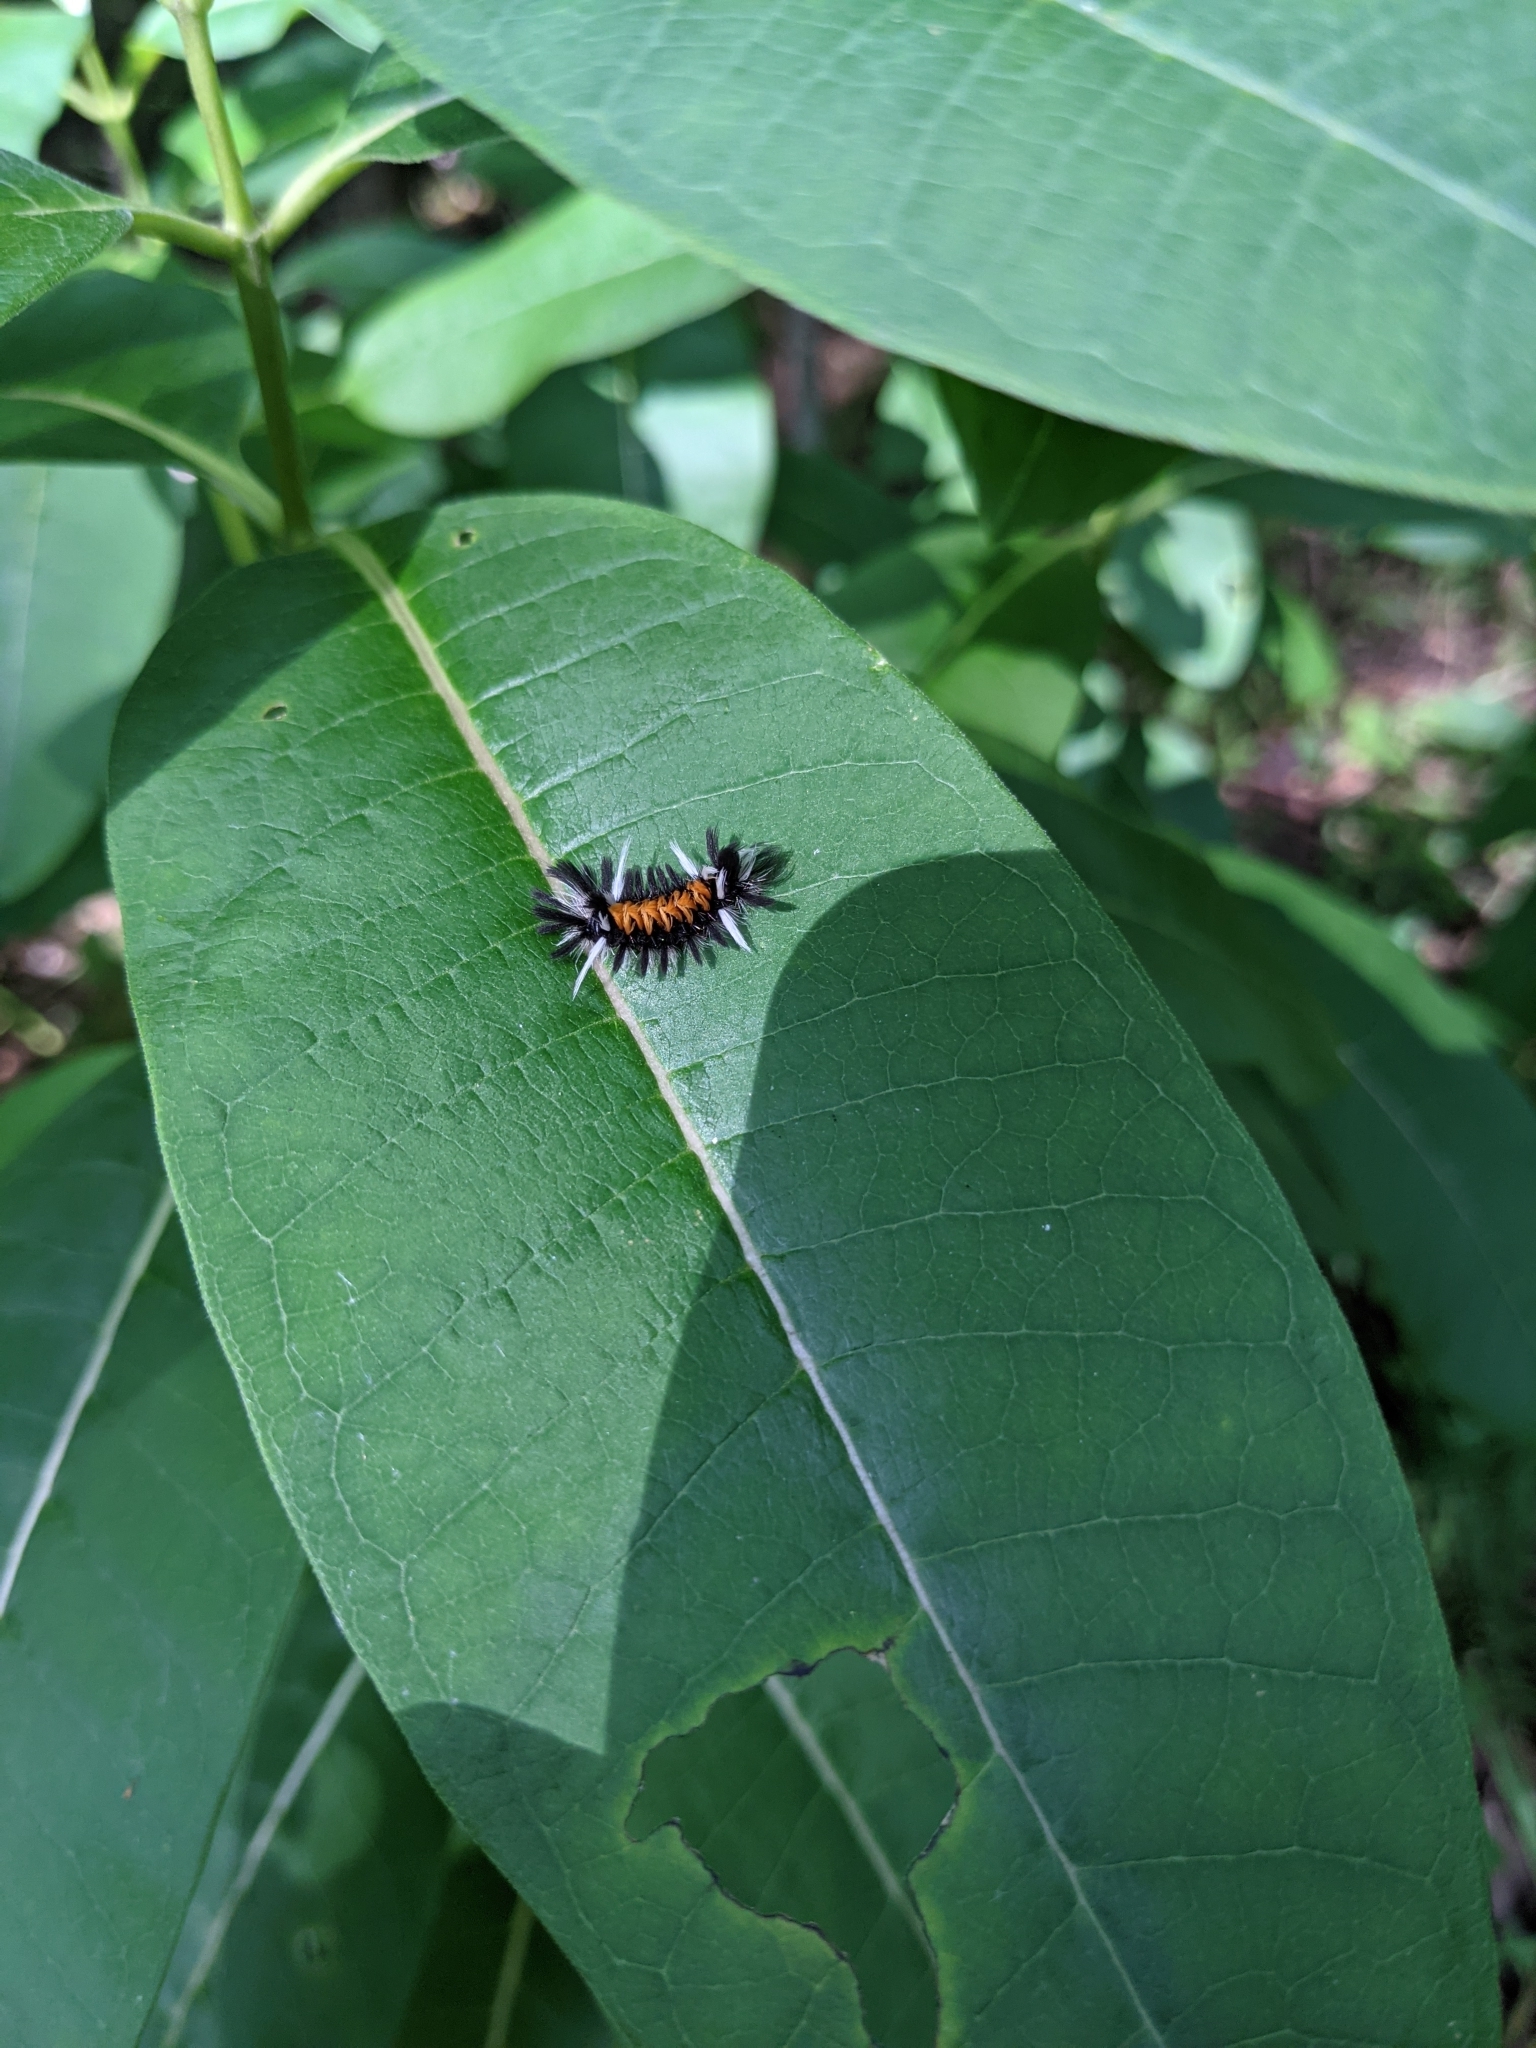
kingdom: Animalia
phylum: Arthropoda
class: Insecta
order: Lepidoptera
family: Erebidae
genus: Euchaetes
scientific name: Euchaetes egle
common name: Milkweed tussock moth
